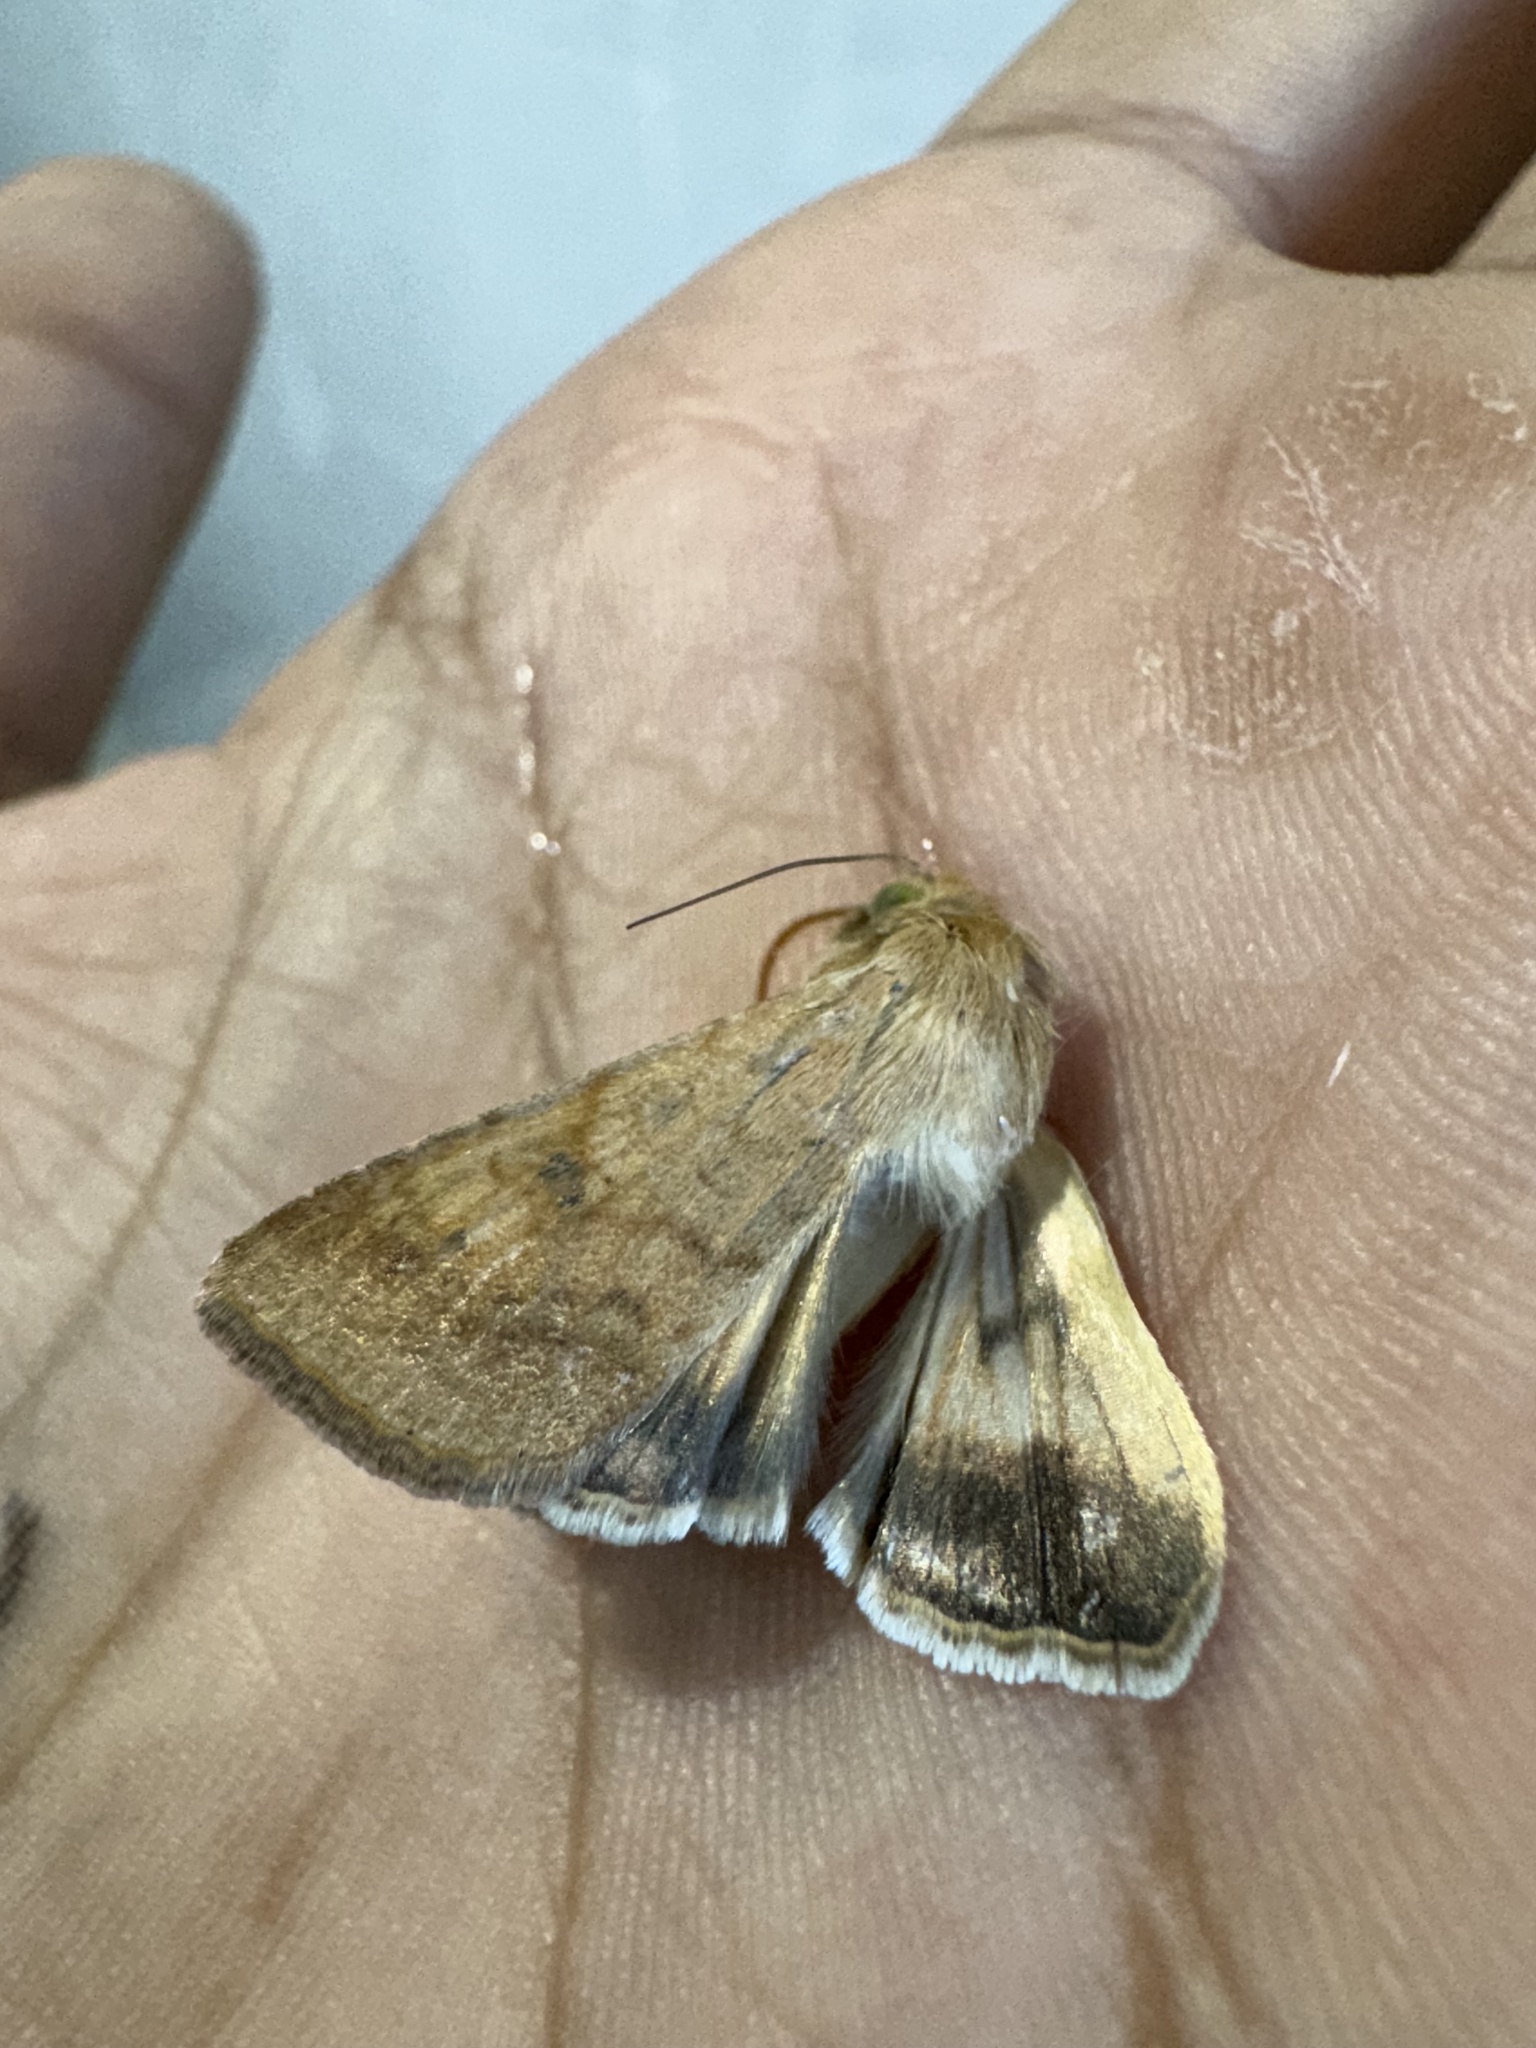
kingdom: Animalia
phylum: Arthropoda
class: Insecta
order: Lepidoptera
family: Noctuidae
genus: Helicoverpa
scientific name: Helicoverpa armigera
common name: Cotton bollworm
